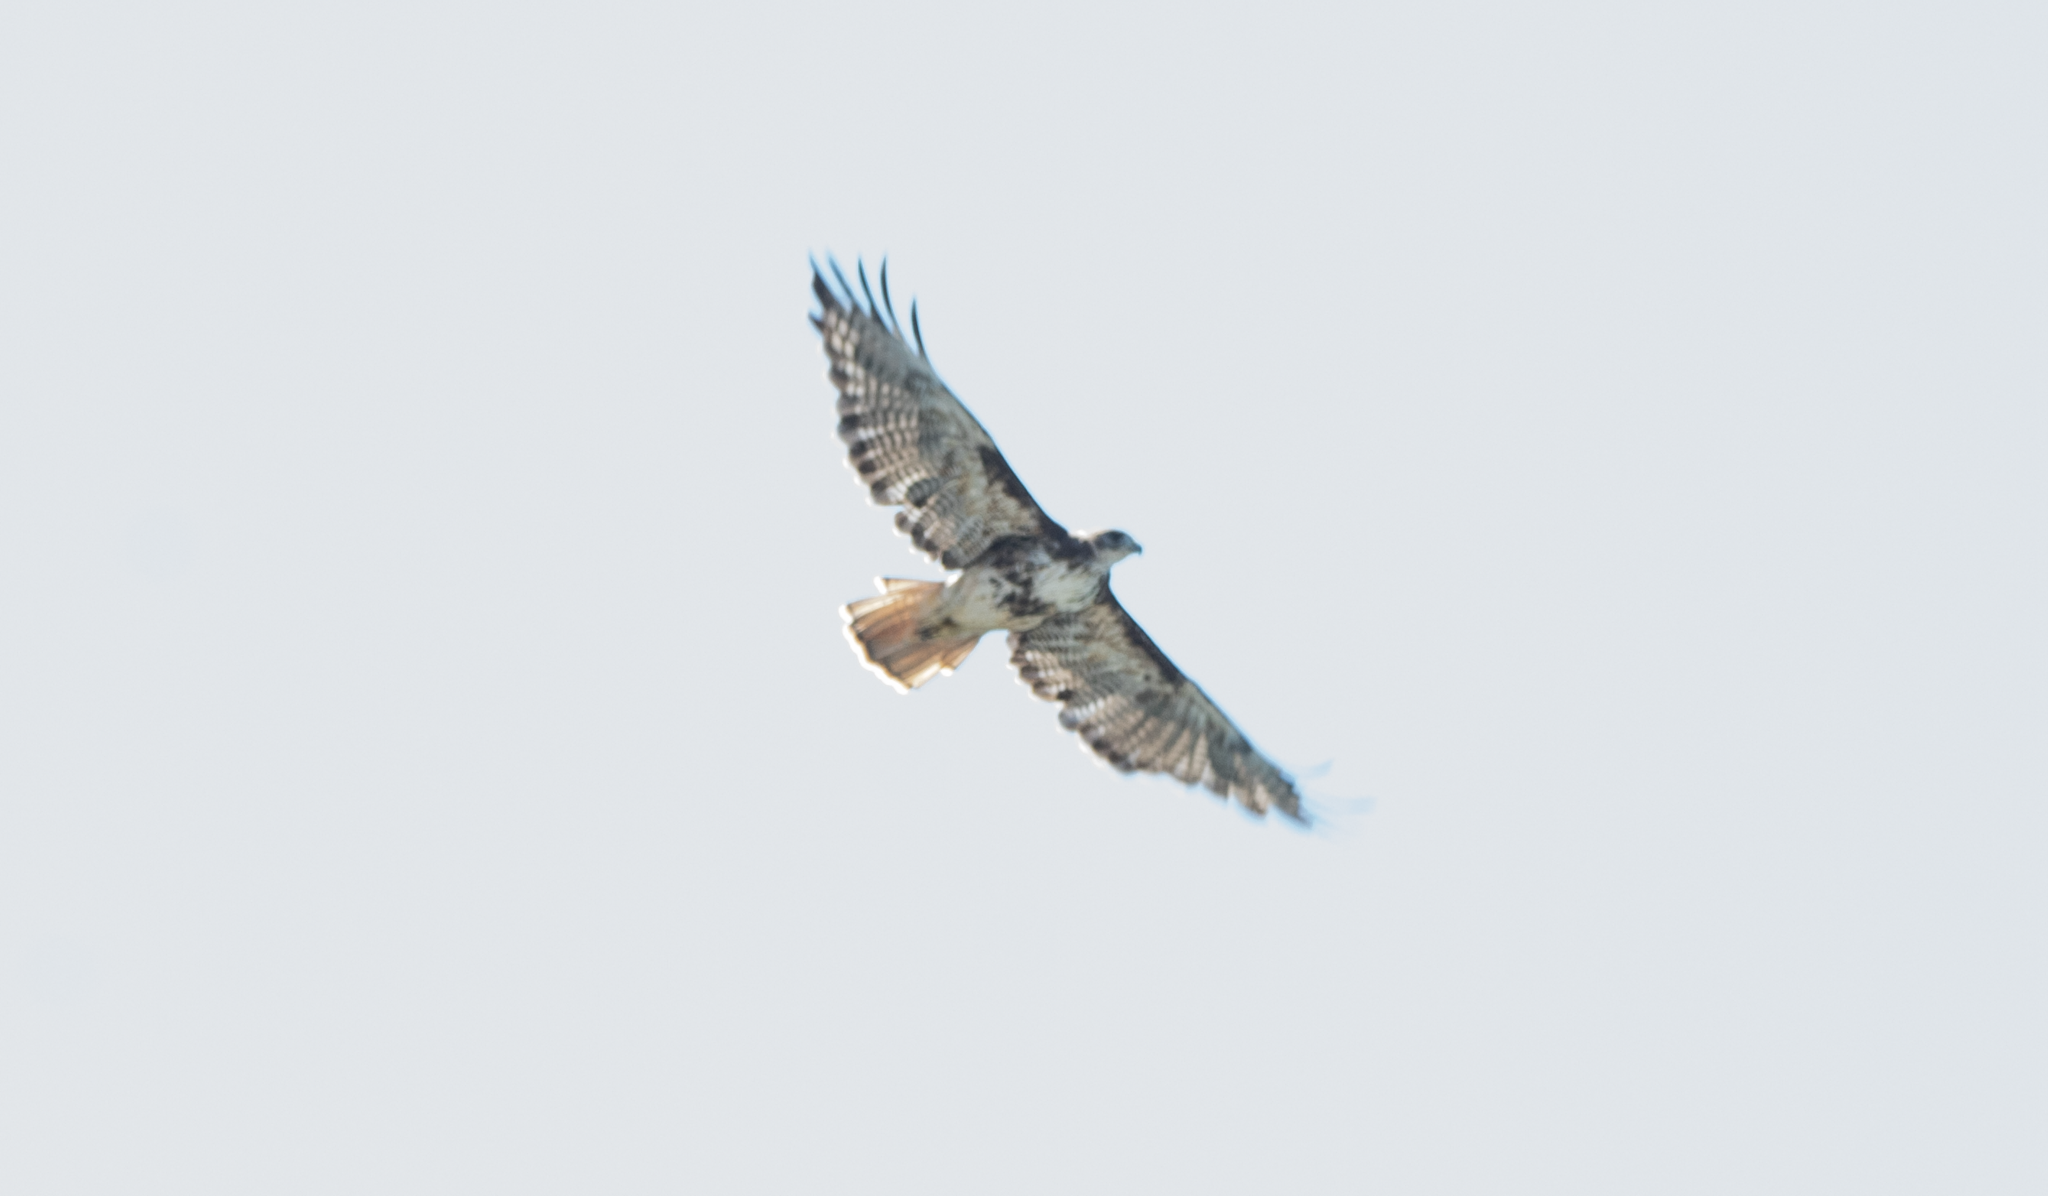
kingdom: Animalia
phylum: Chordata
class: Aves
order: Accipitriformes
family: Accipitridae
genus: Buteo
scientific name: Buteo jamaicensis
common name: Red-tailed hawk
